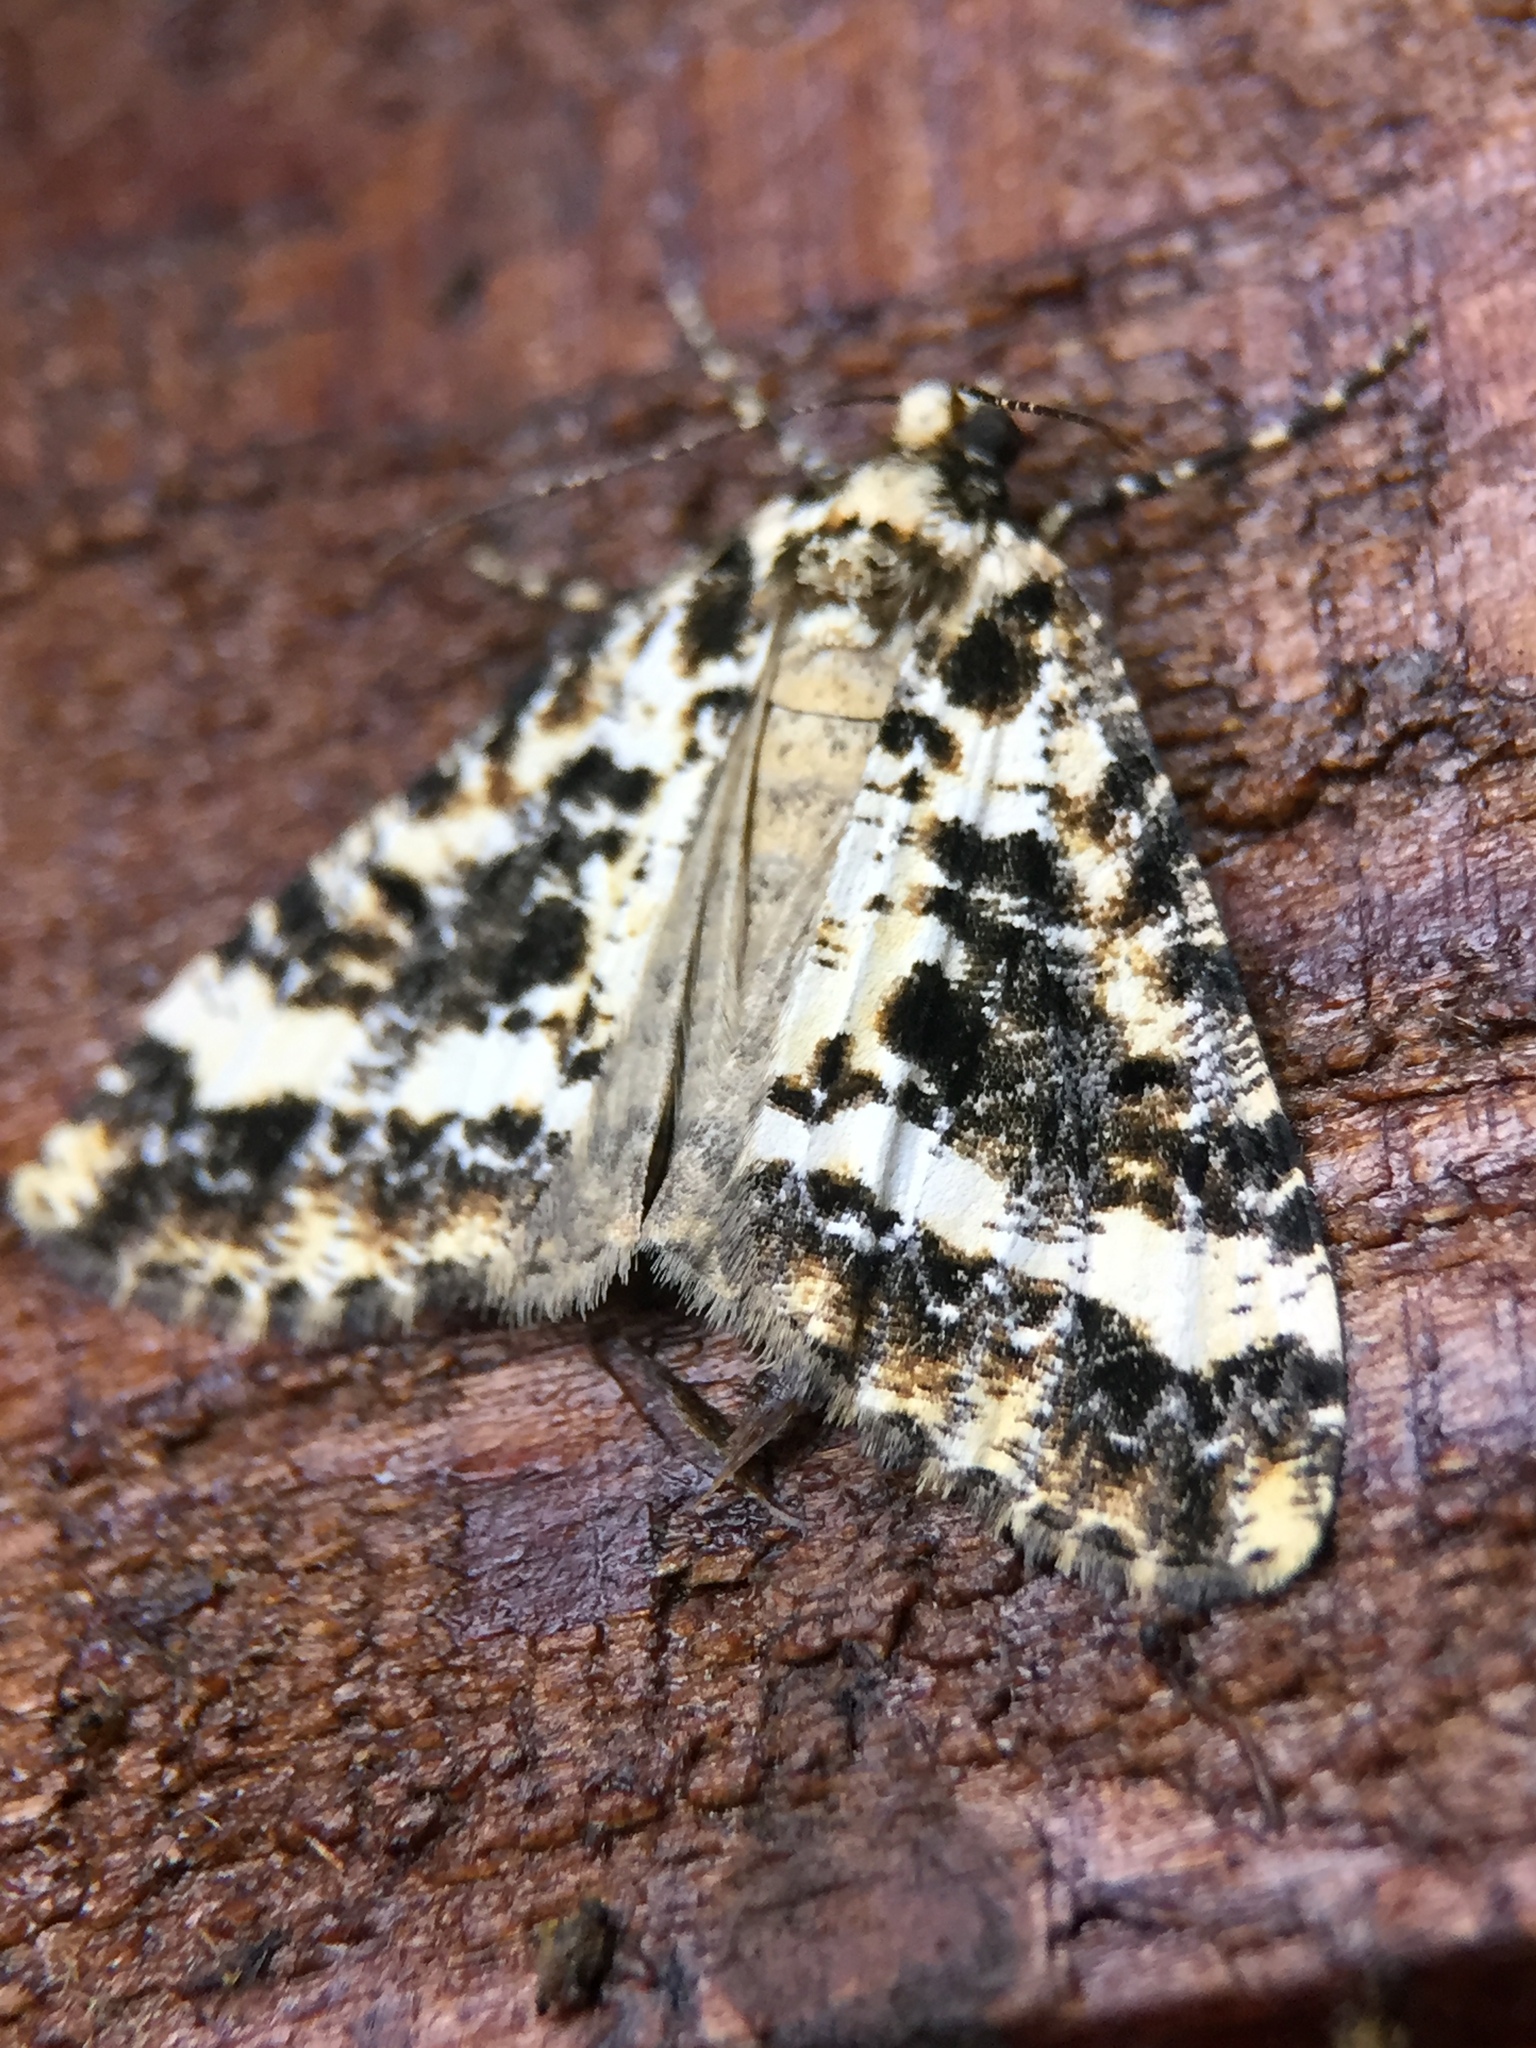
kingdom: Animalia
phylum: Arthropoda
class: Insecta
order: Lepidoptera
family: Geometridae
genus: Pseudocoremia
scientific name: Pseudocoremia leucelaea
